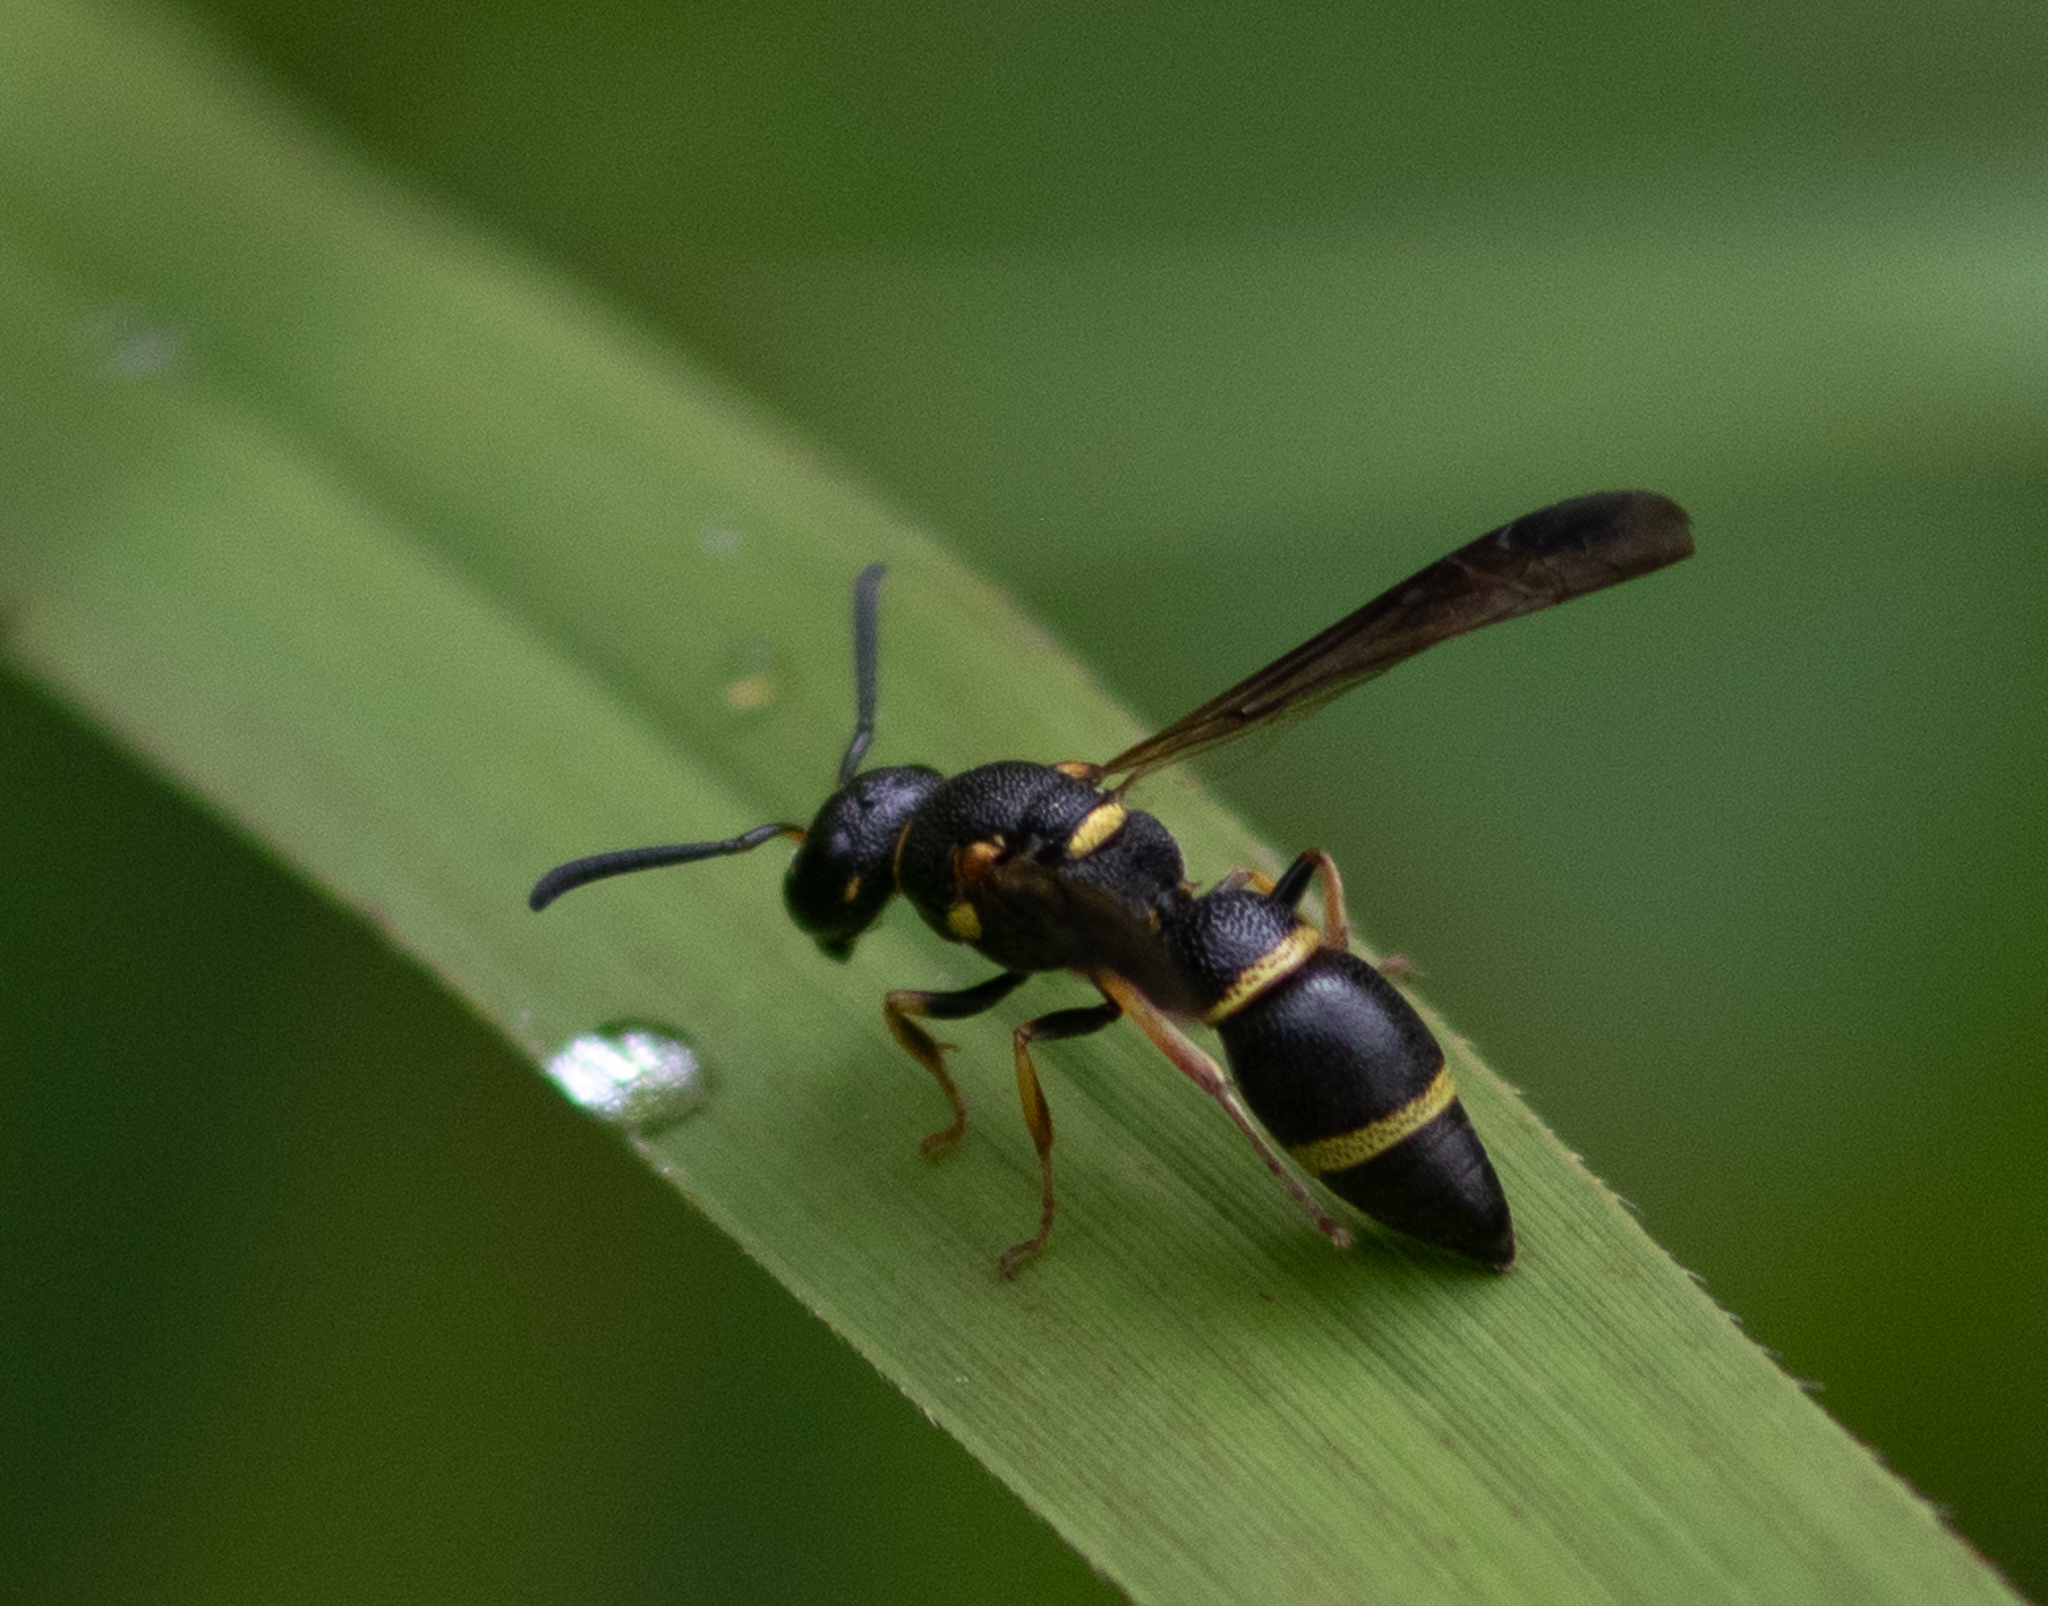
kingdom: Animalia
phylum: Arthropoda
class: Insecta
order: Hymenoptera
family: Eumenidae
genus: Parancistrocerus
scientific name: Parancistrocerus perennis
